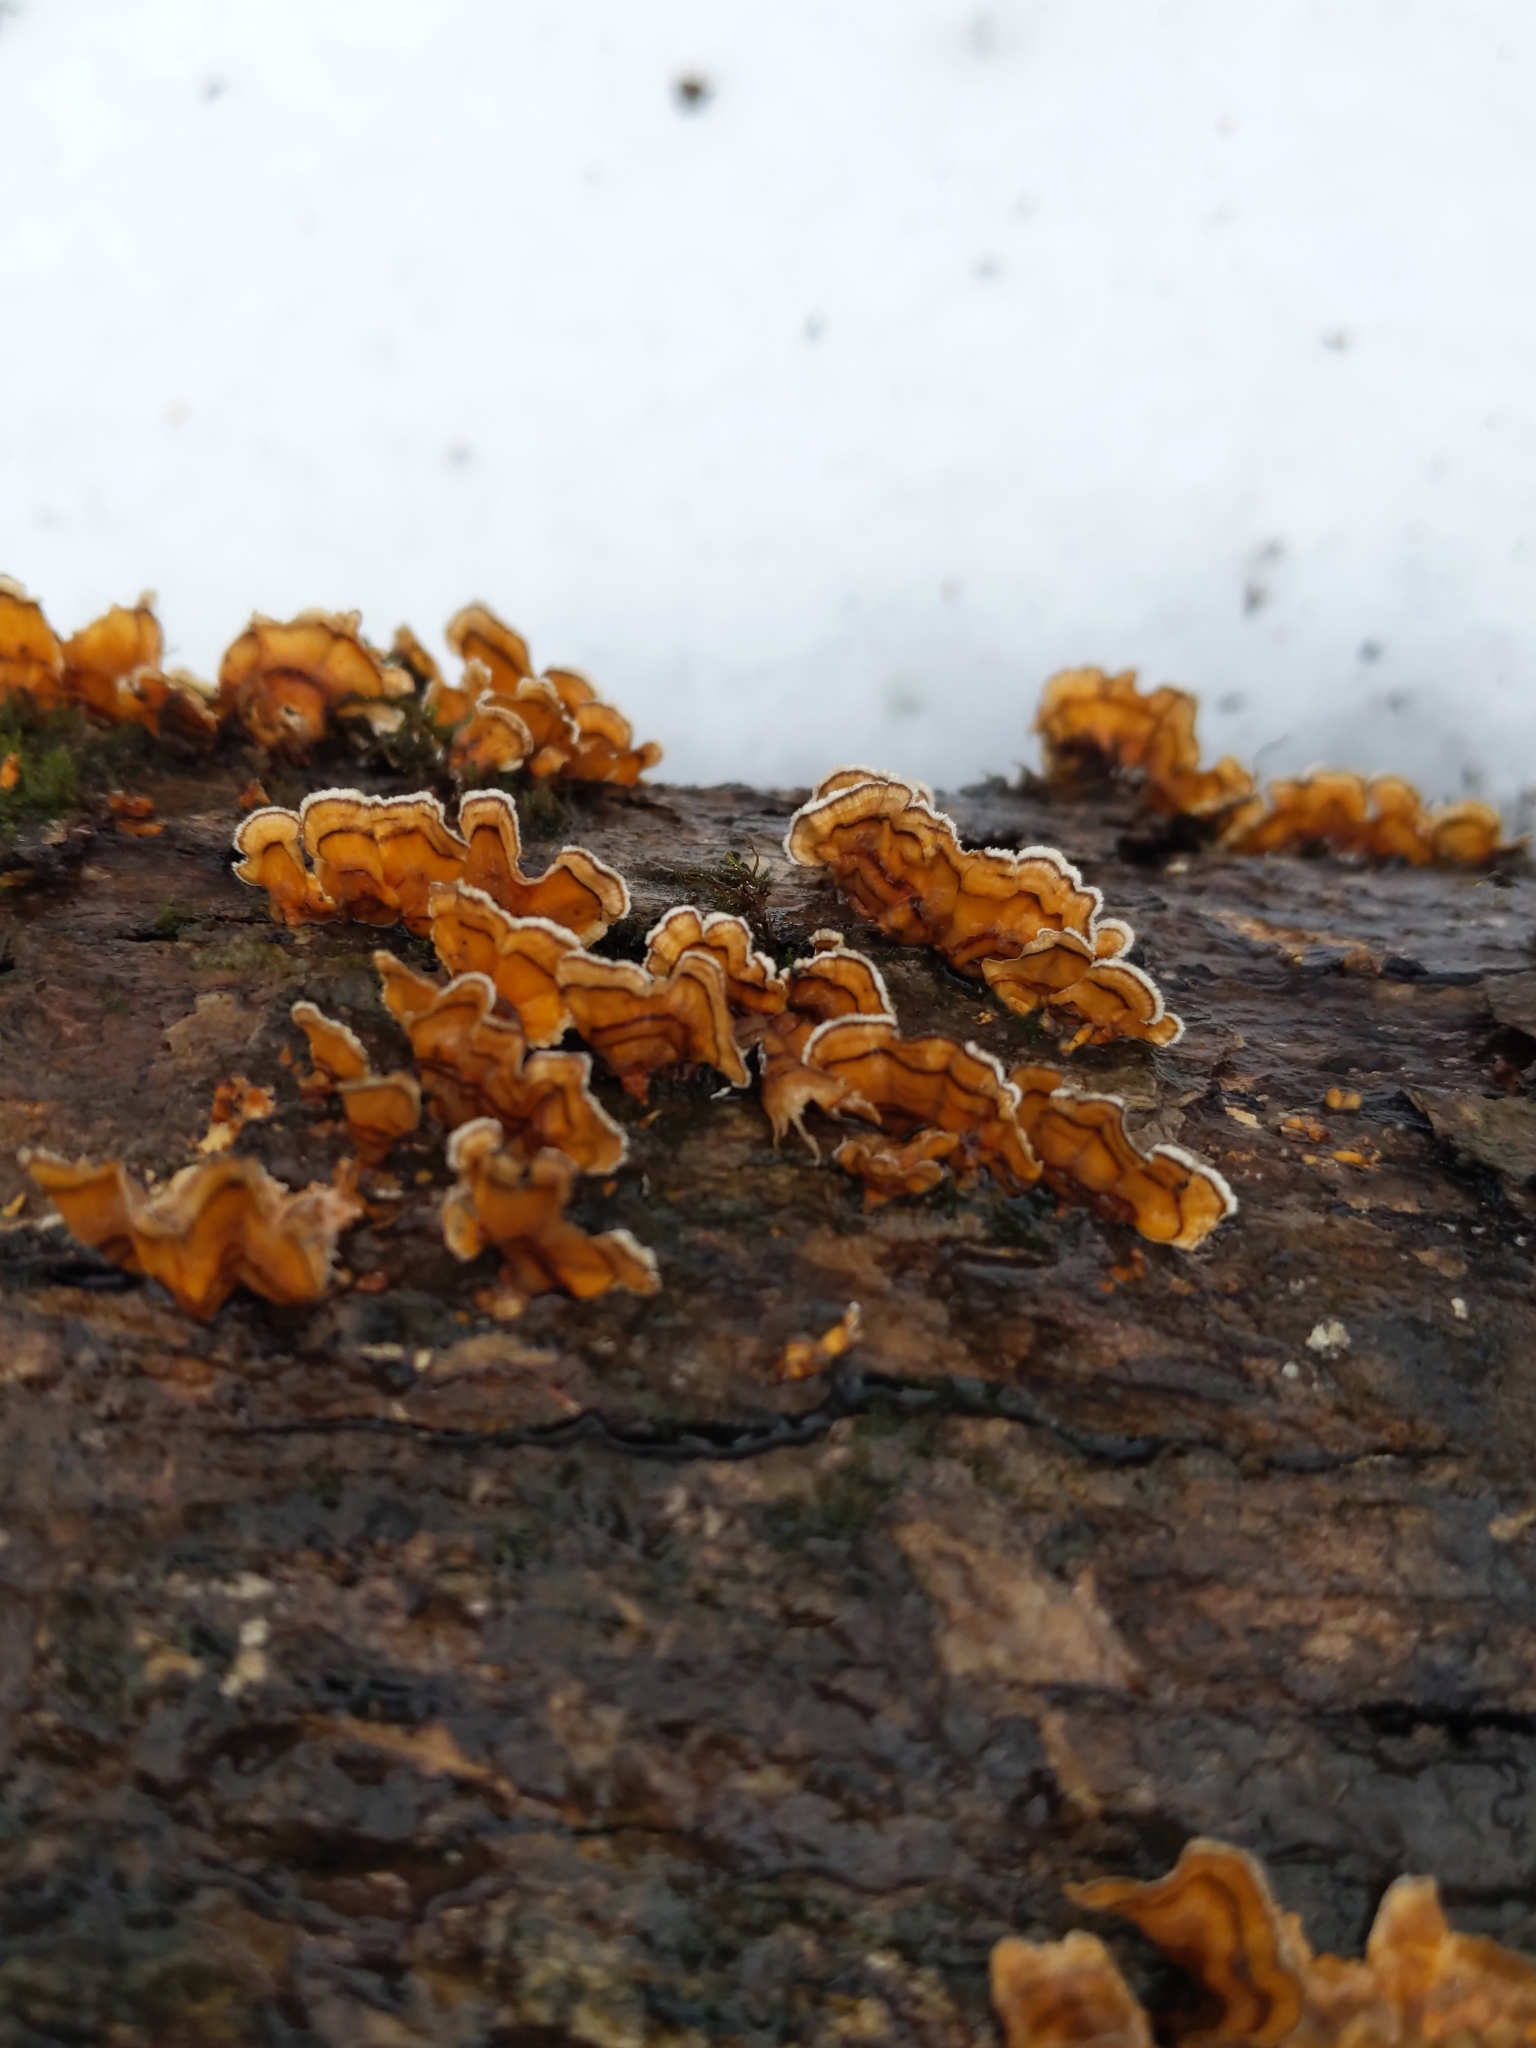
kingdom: Fungi
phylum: Basidiomycota
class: Agaricomycetes
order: Russulales
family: Stereaceae
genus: Stereum
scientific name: Stereum complicatum
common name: Crowded parchment
